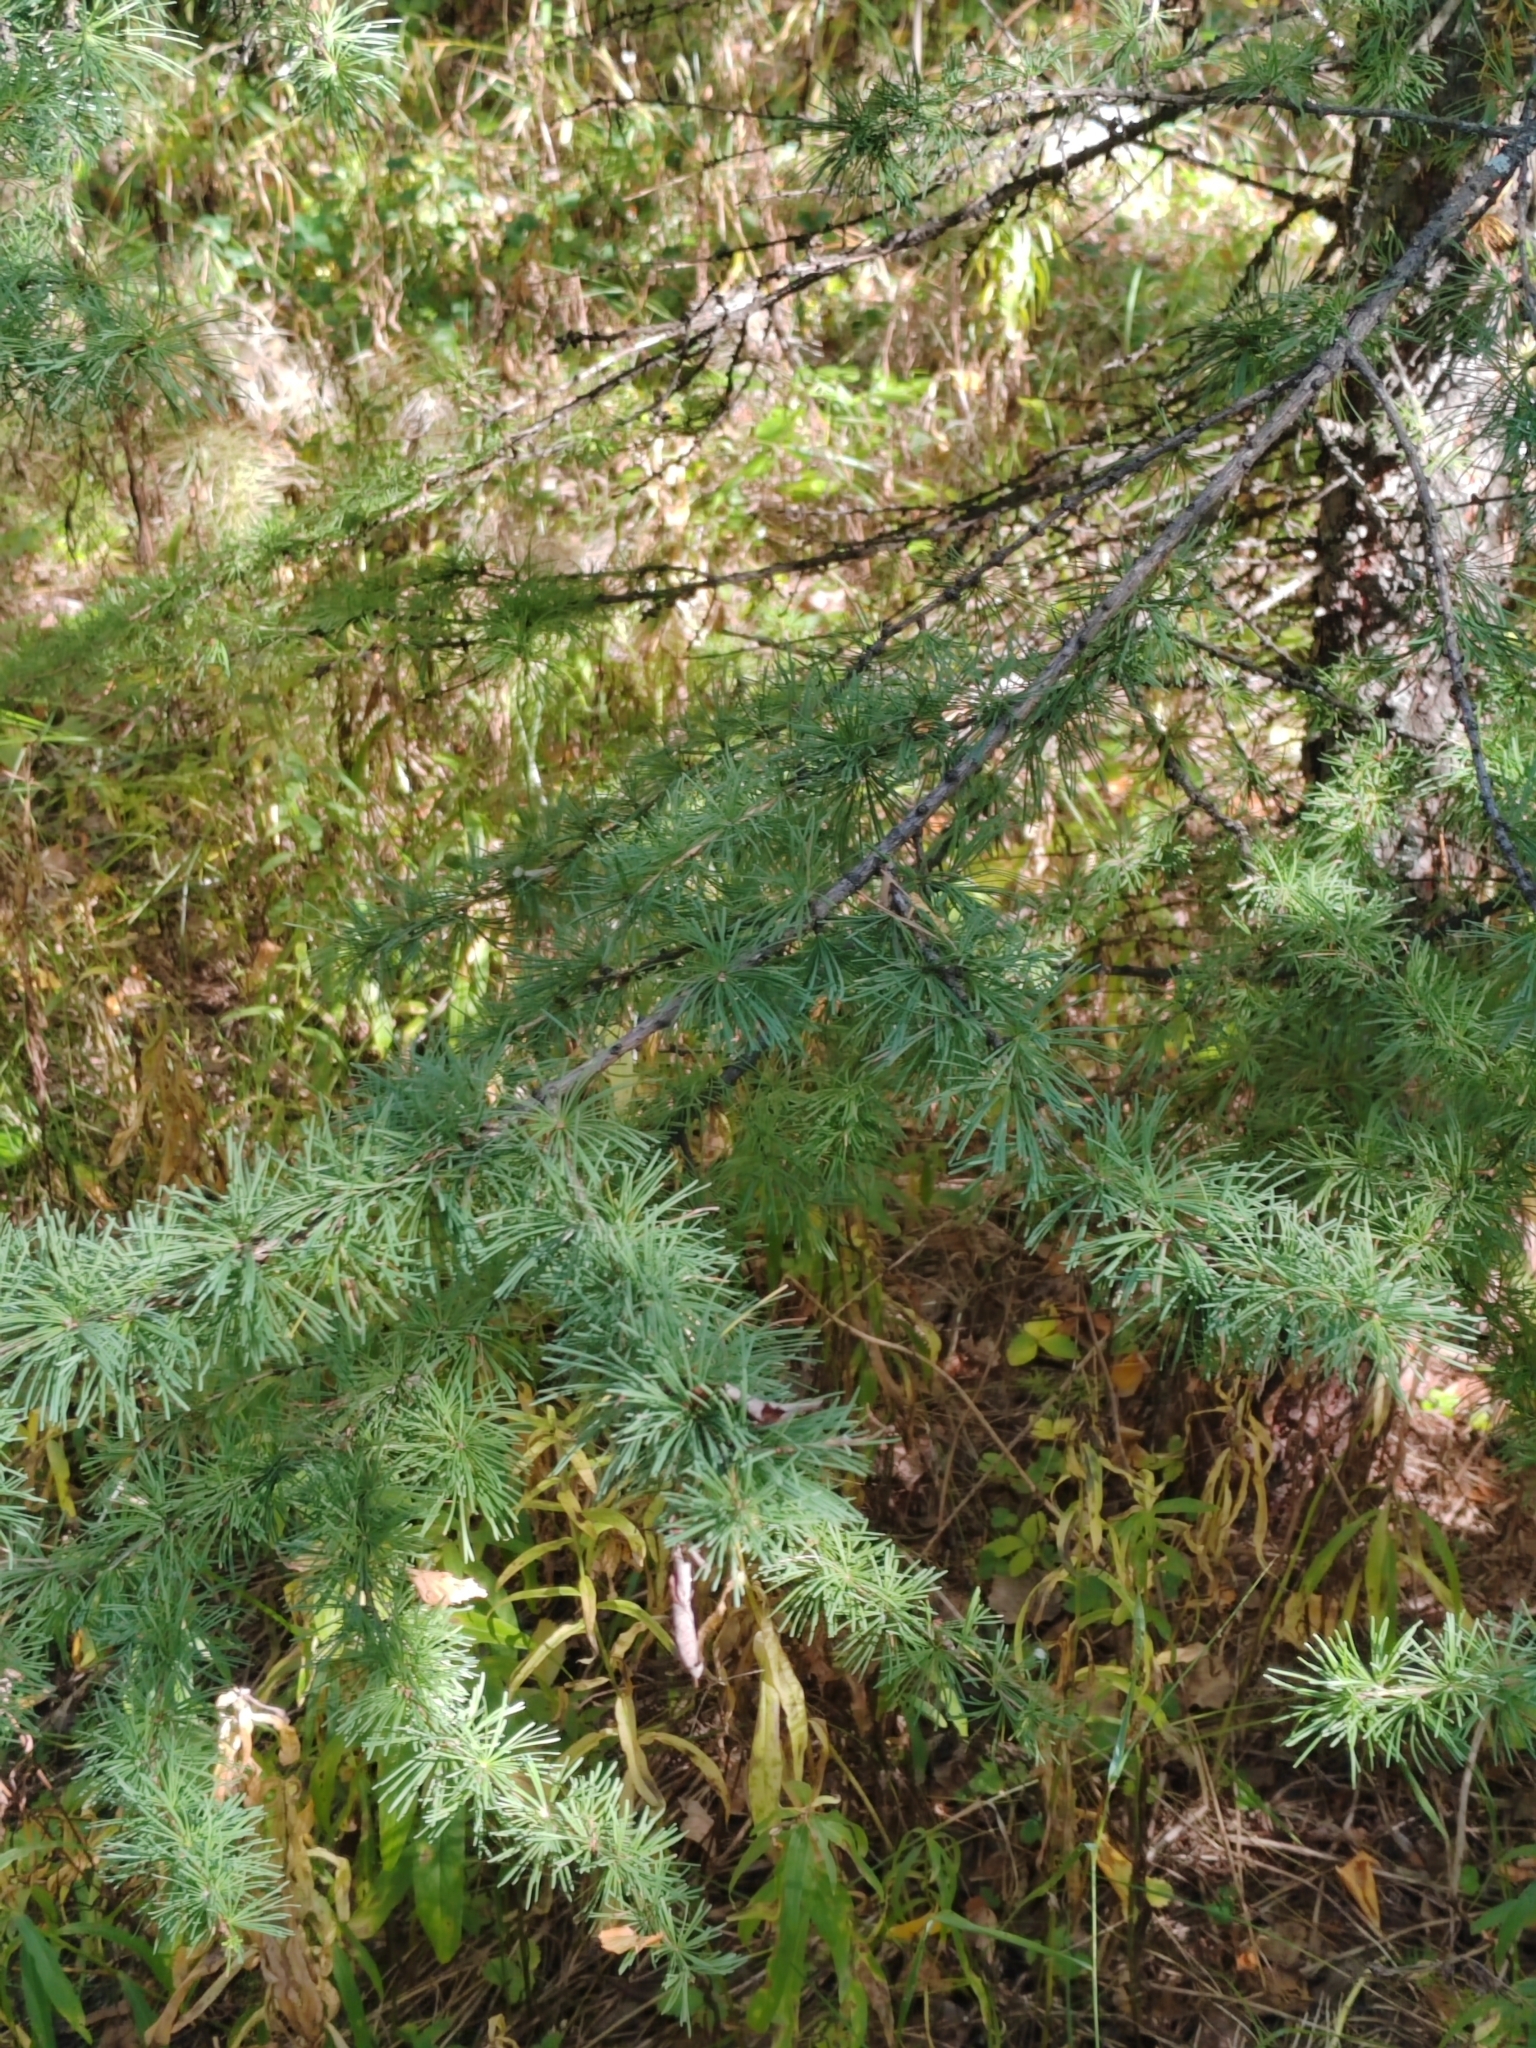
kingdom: Plantae
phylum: Tracheophyta
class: Pinopsida
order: Pinales
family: Pinaceae
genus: Larix
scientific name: Larix sibirica
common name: Siberian larch
